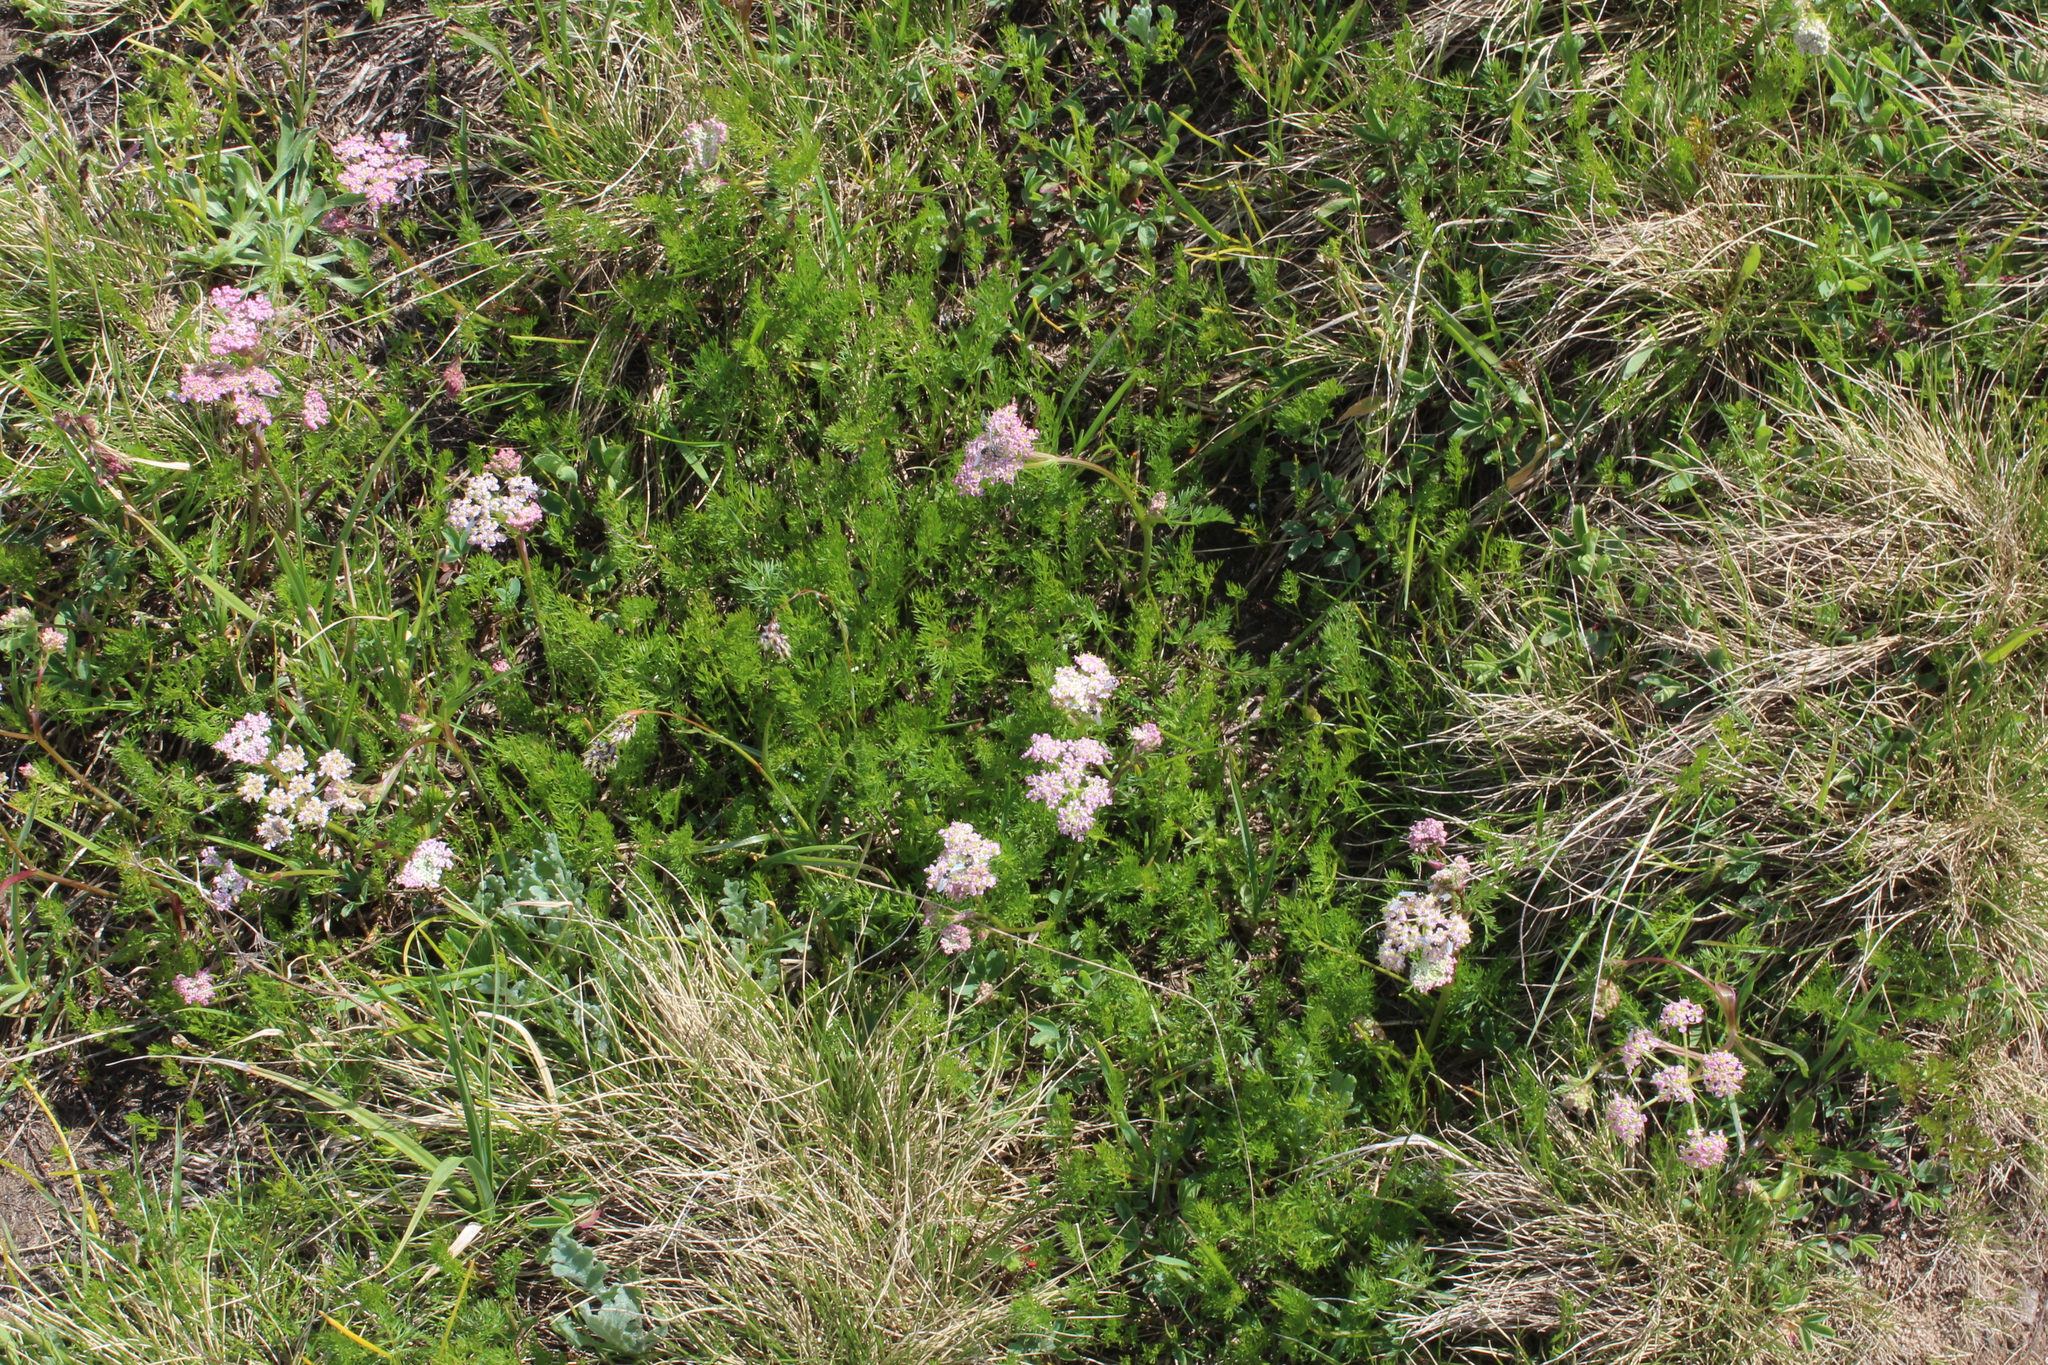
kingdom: Plantae
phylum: Tracheophyta
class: Magnoliopsida
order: Apiales
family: Apiaceae
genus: Carum
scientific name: Carum meifolium
